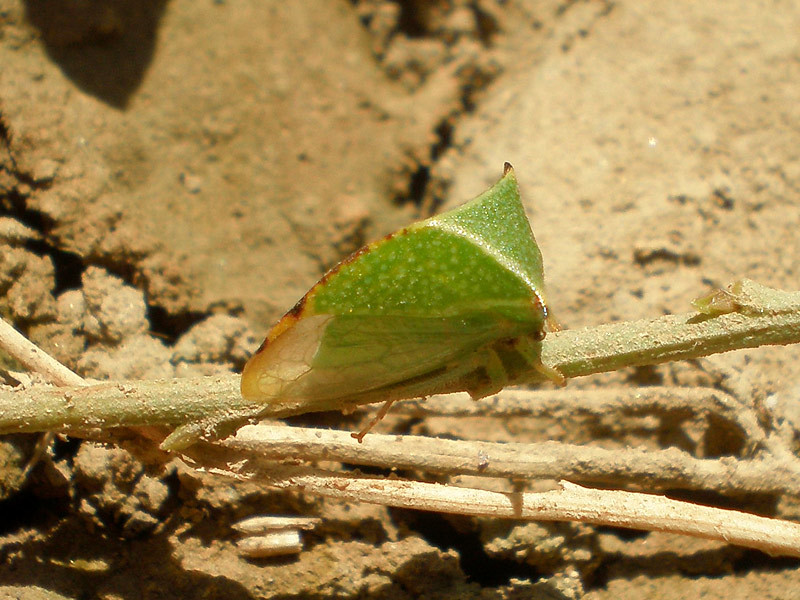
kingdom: Animalia
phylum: Arthropoda
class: Insecta
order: Hemiptera
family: Membracidae
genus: Stictocephala
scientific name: Stictocephala bisonia
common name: American buffalo treehopper
